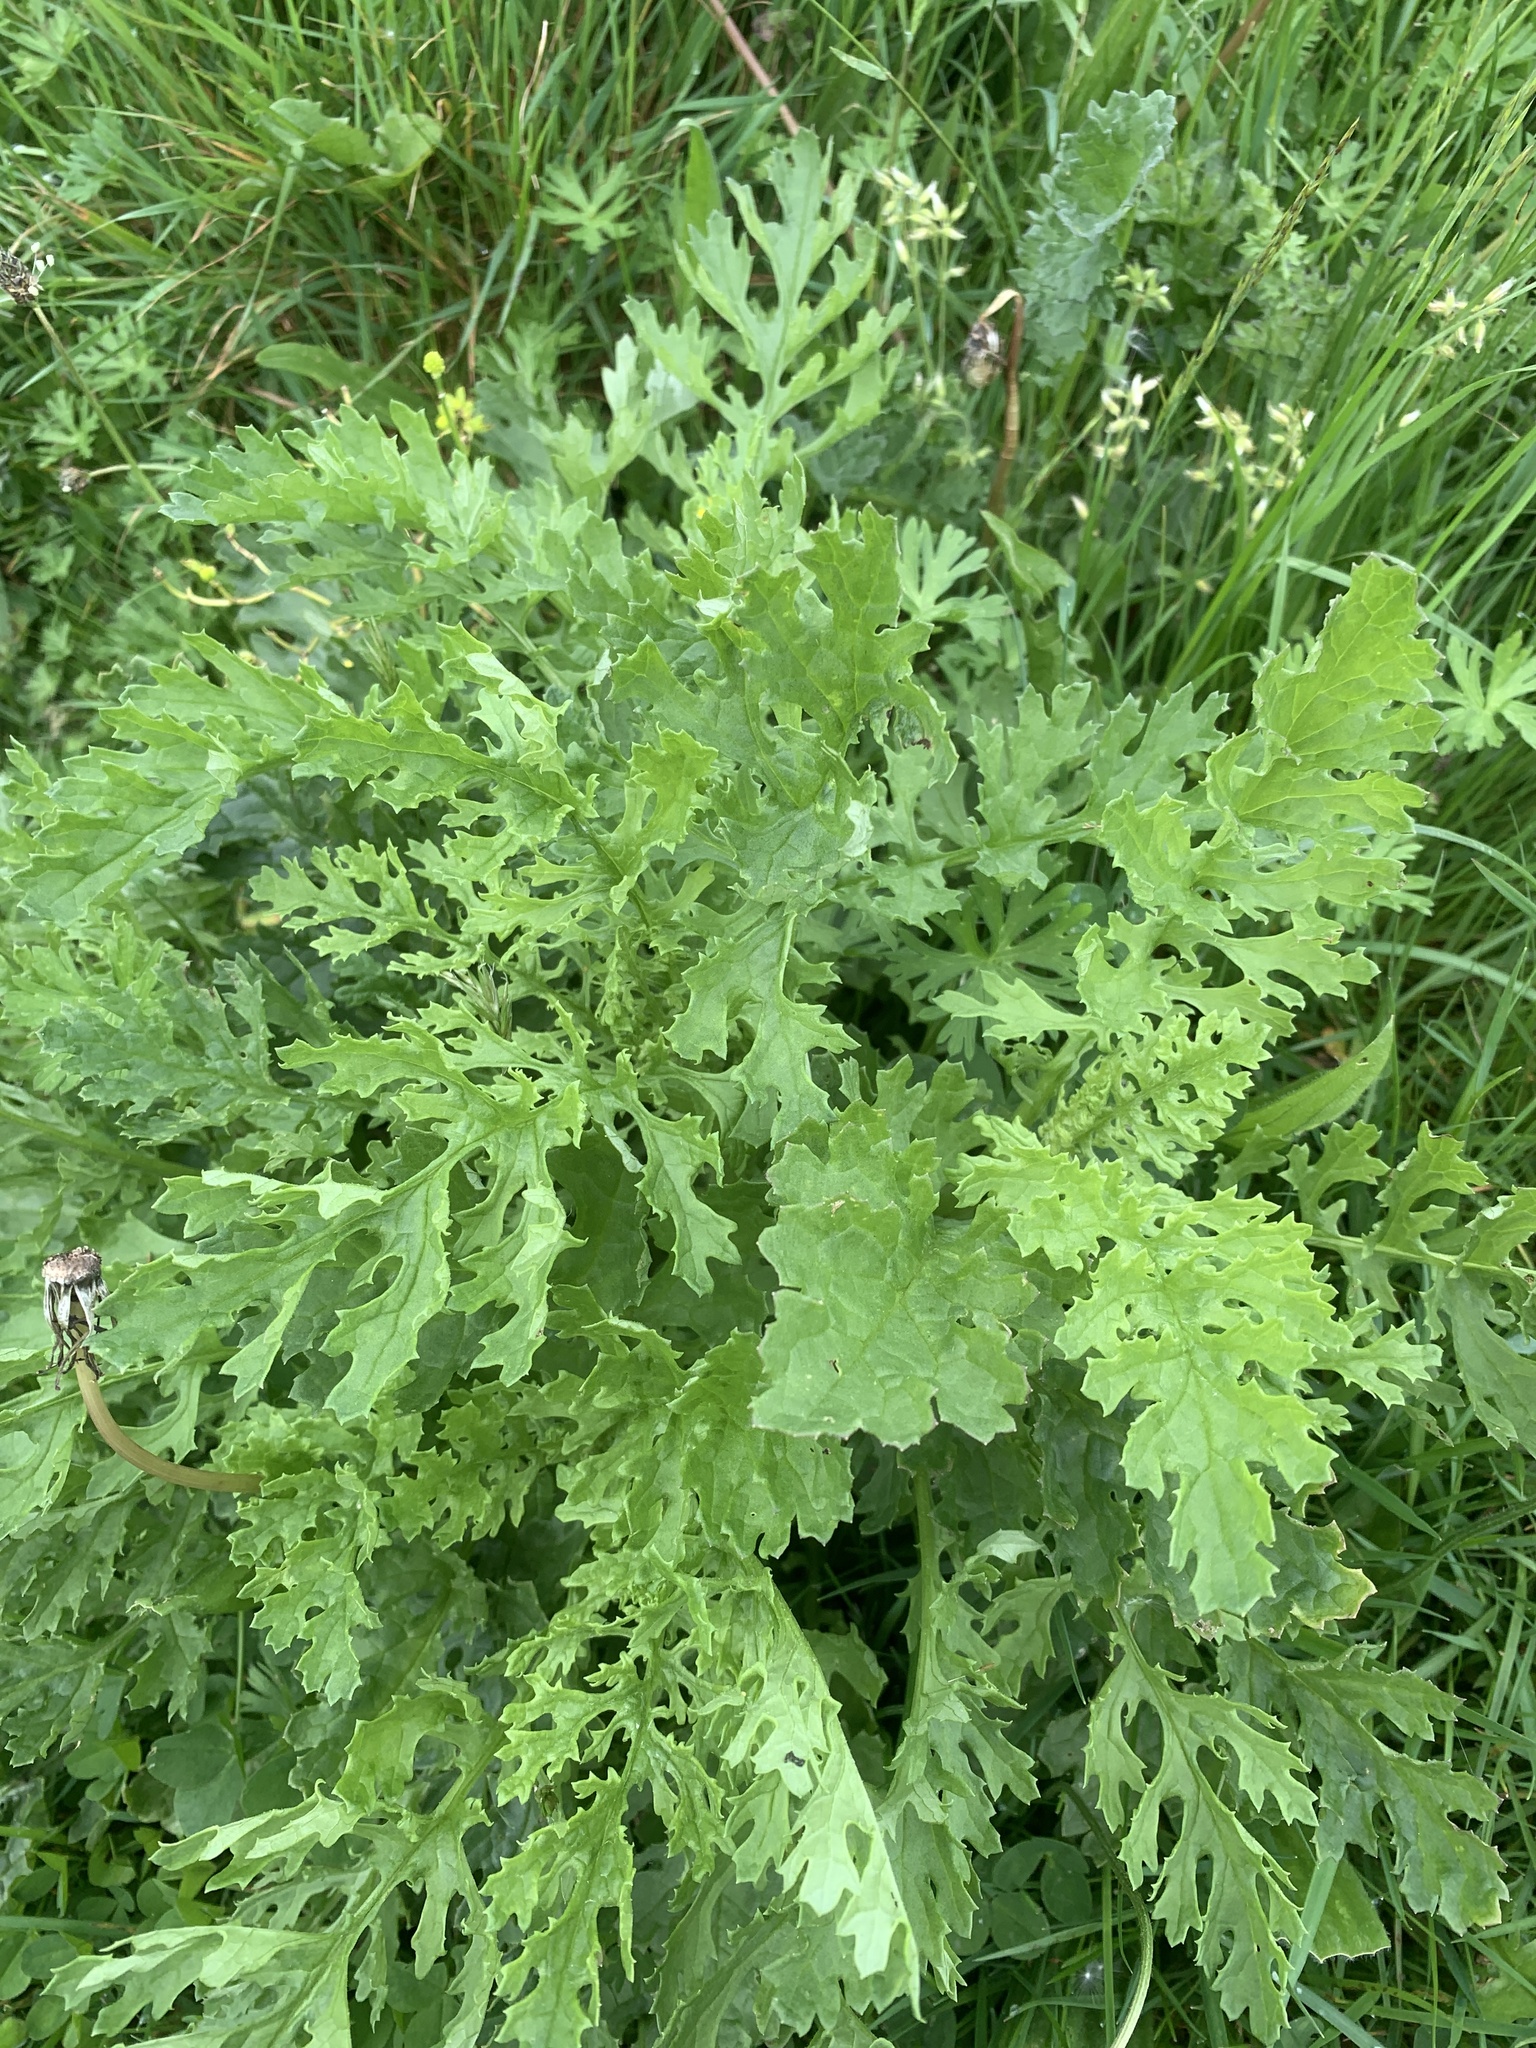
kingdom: Plantae
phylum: Tracheophyta
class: Magnoliopsida
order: Asterales
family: Asteraceae
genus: Jacobaea
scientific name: Jacobaea vulgaris
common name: Stinking willie
